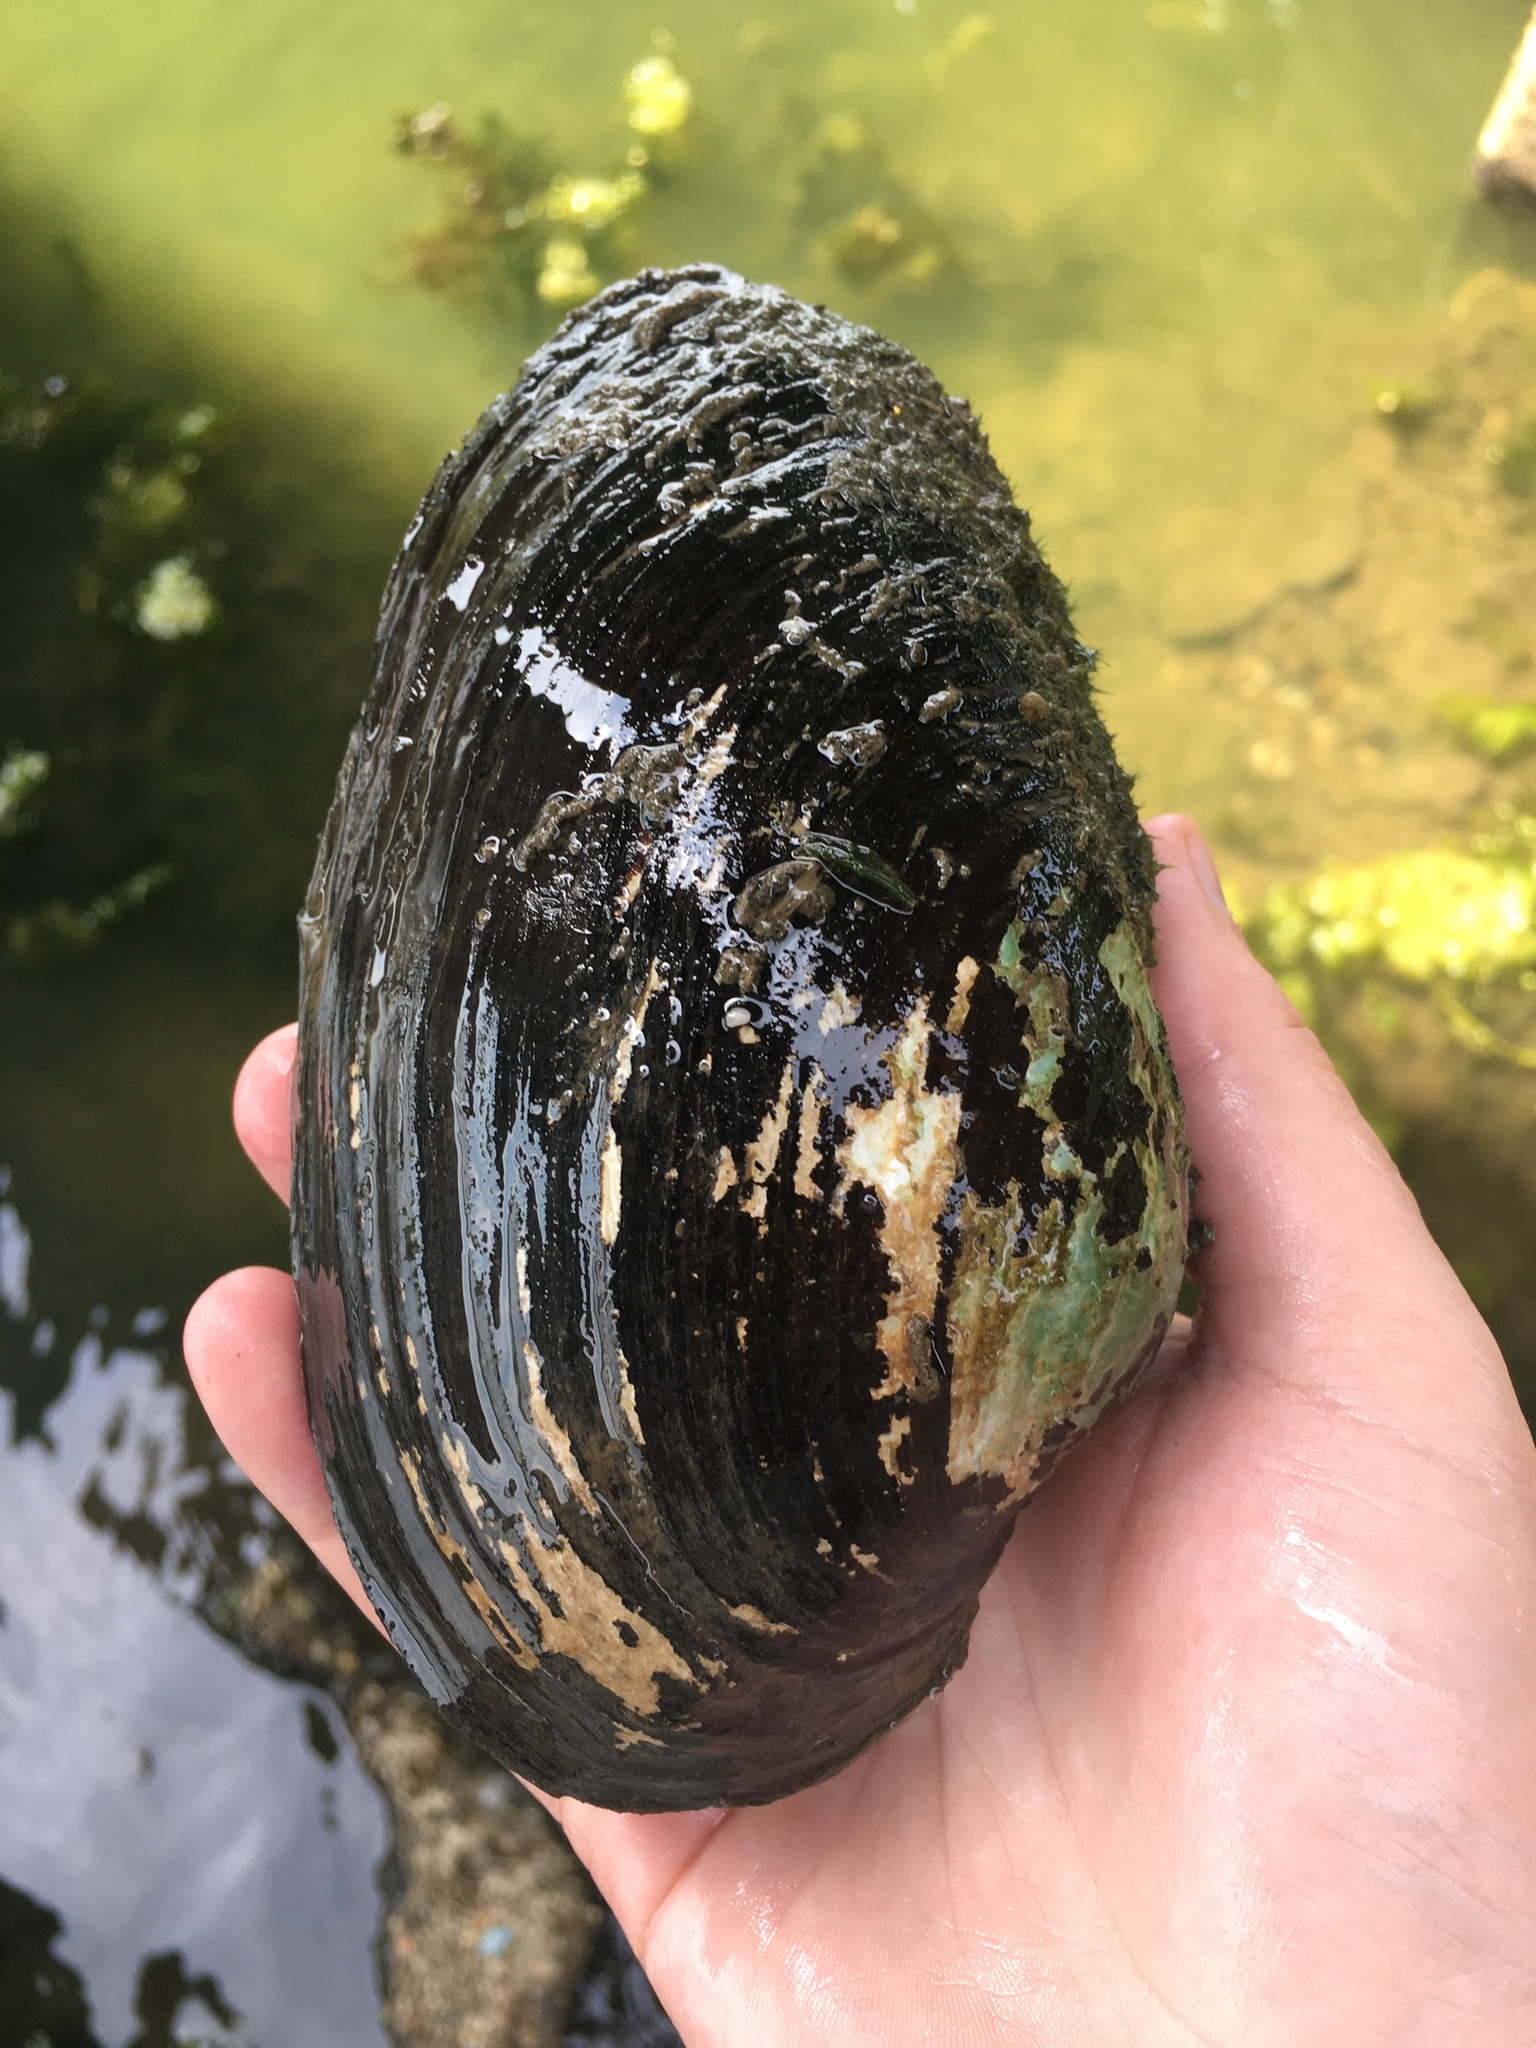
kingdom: Animalia
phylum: Mollusca
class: Bivalvia
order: Unionida
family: Unionidae
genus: Pyganodon
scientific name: Pyganodon grandis
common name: Giant floater
